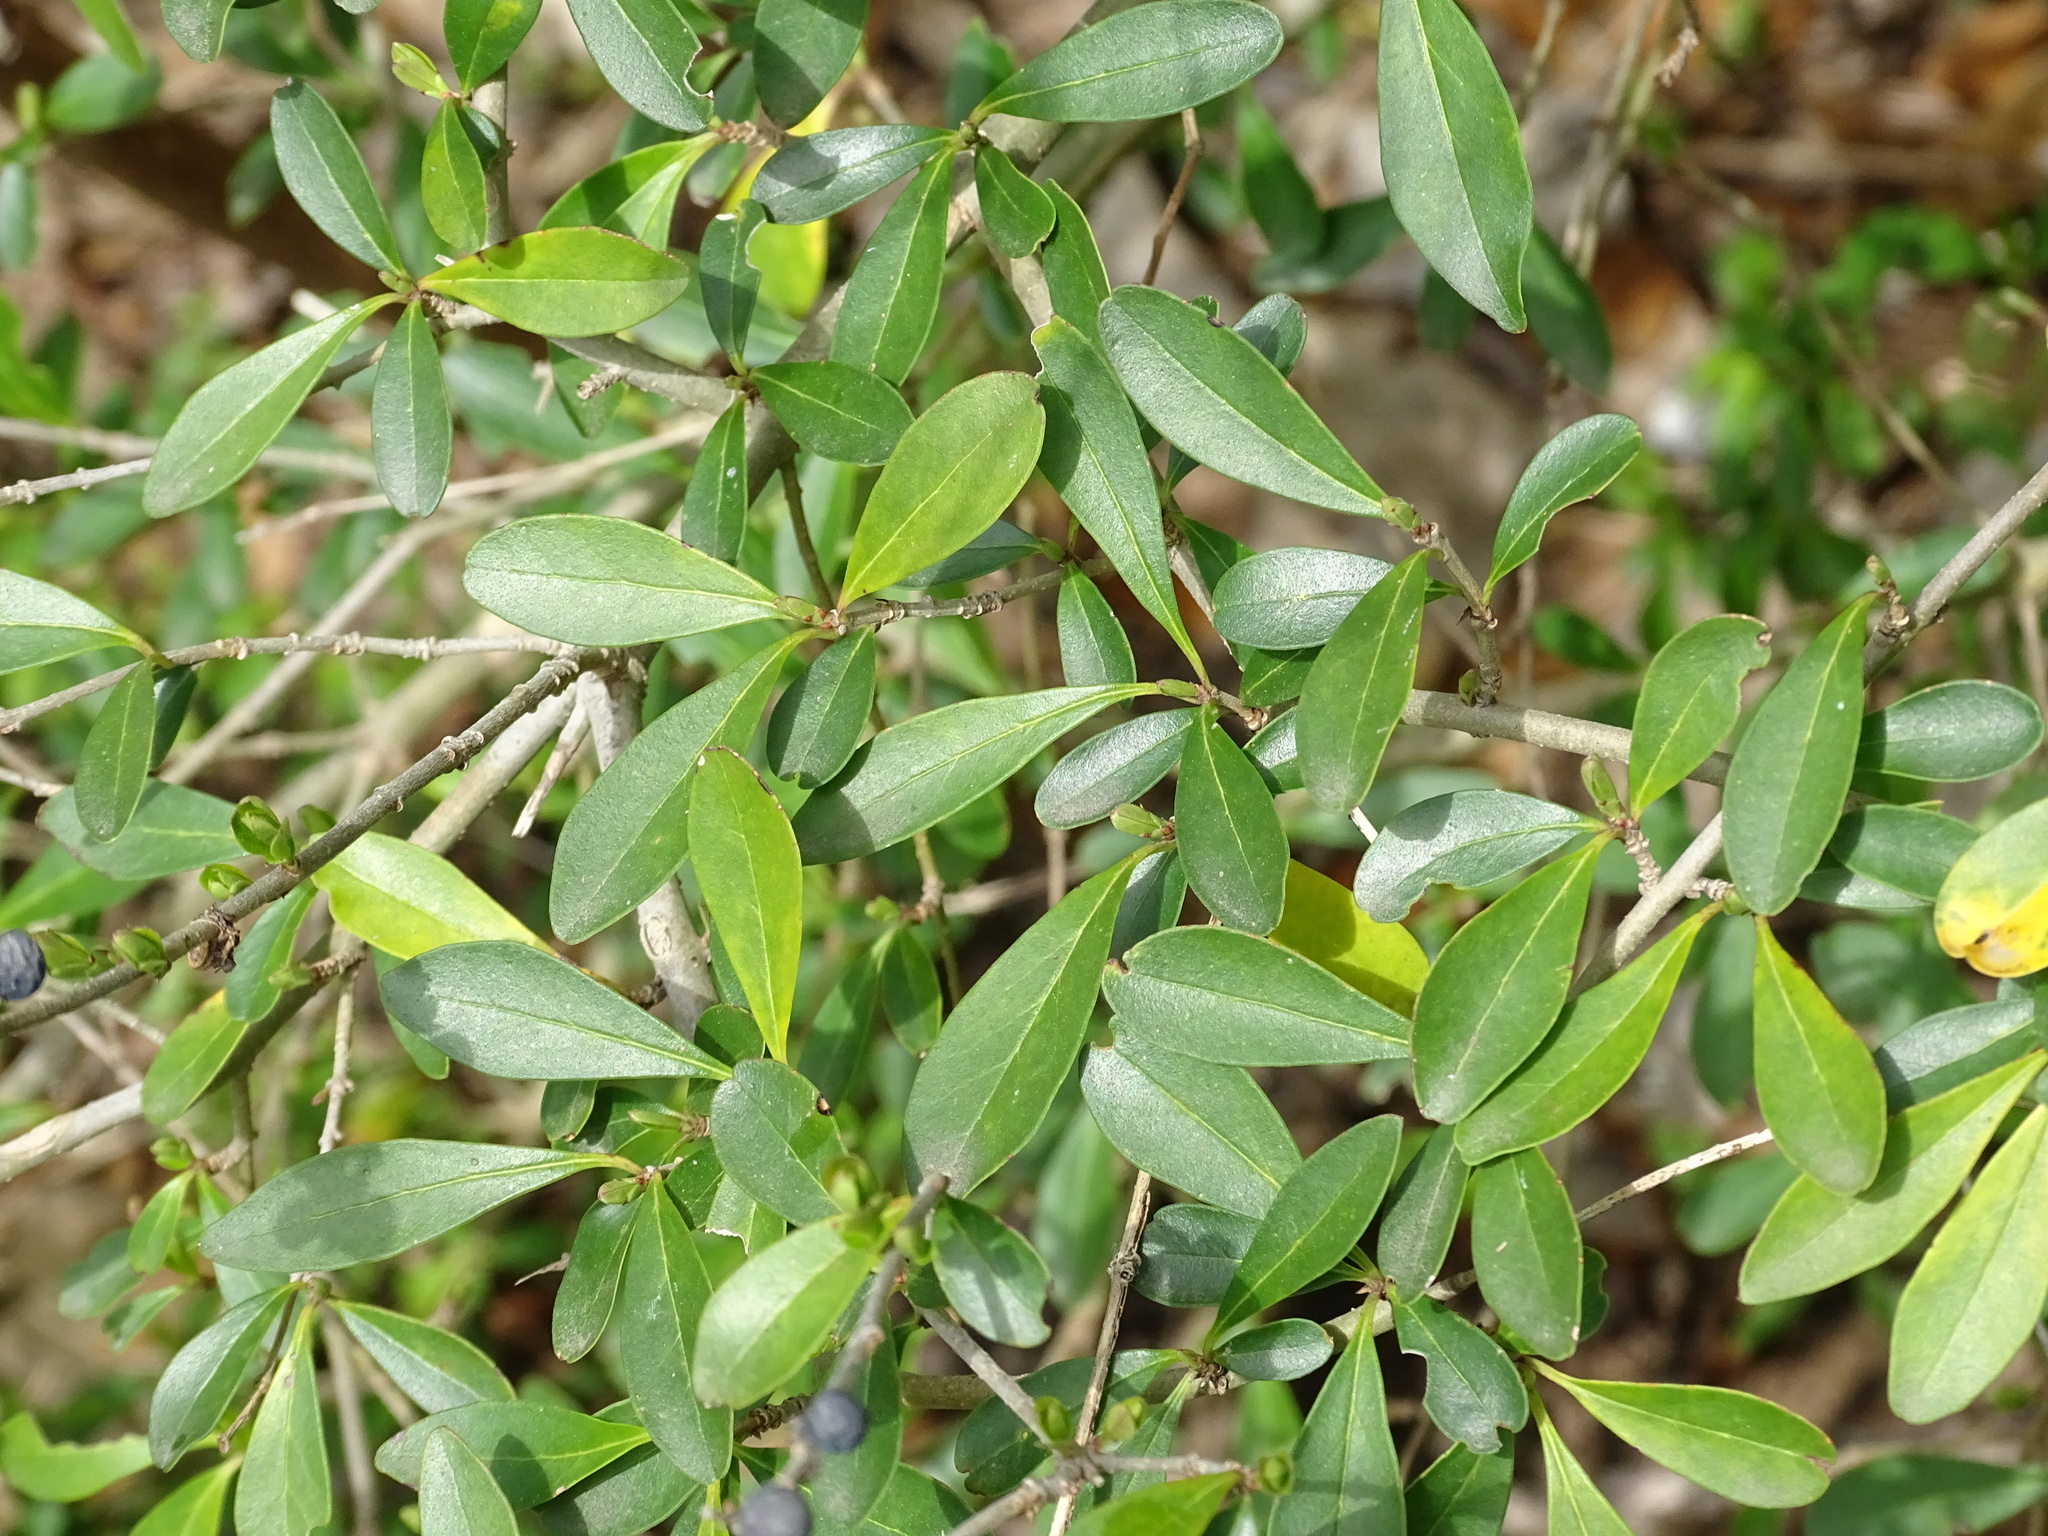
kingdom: Plantae
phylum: Tracheophyta
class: Magnoliopsida
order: Lamiales
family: Oleaceae
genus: Ligustrum
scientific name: Ligustrum quihoui
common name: Waxyleaf privet
